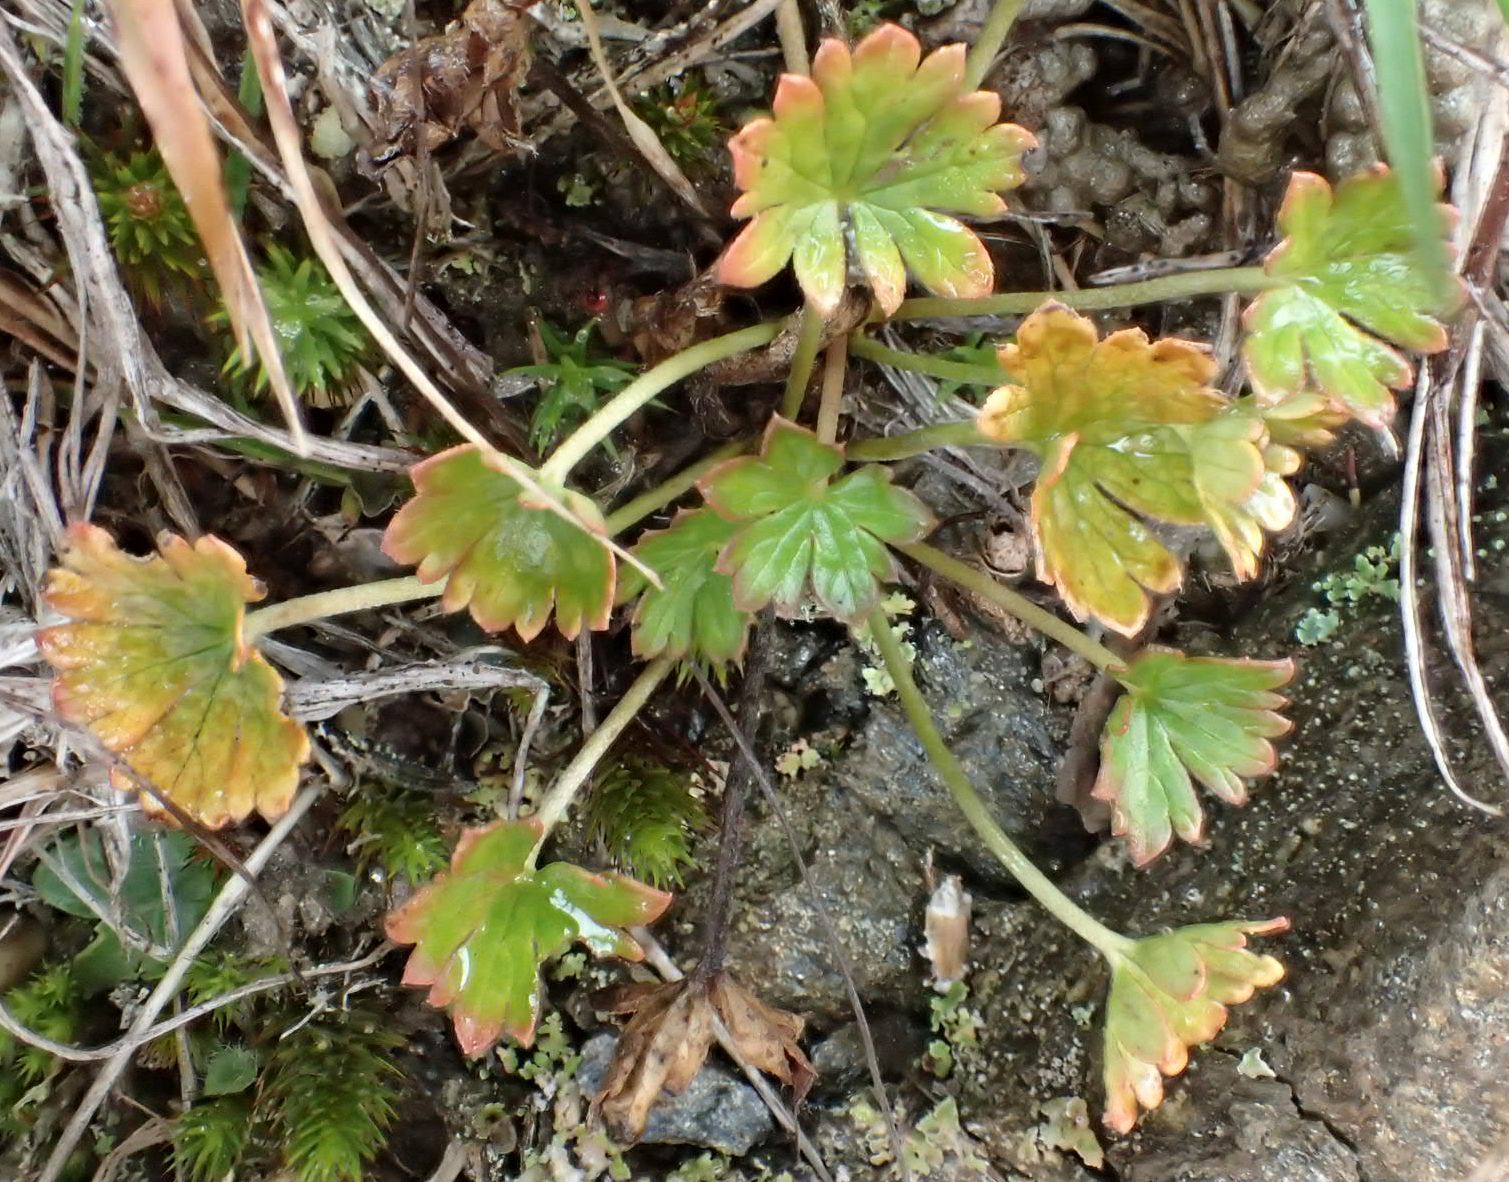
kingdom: Plantae
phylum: Tracheophyta
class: Magnoliopsida
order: Geraniales
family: Geraniaceae
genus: Geranium
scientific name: Geranium brevicaule
